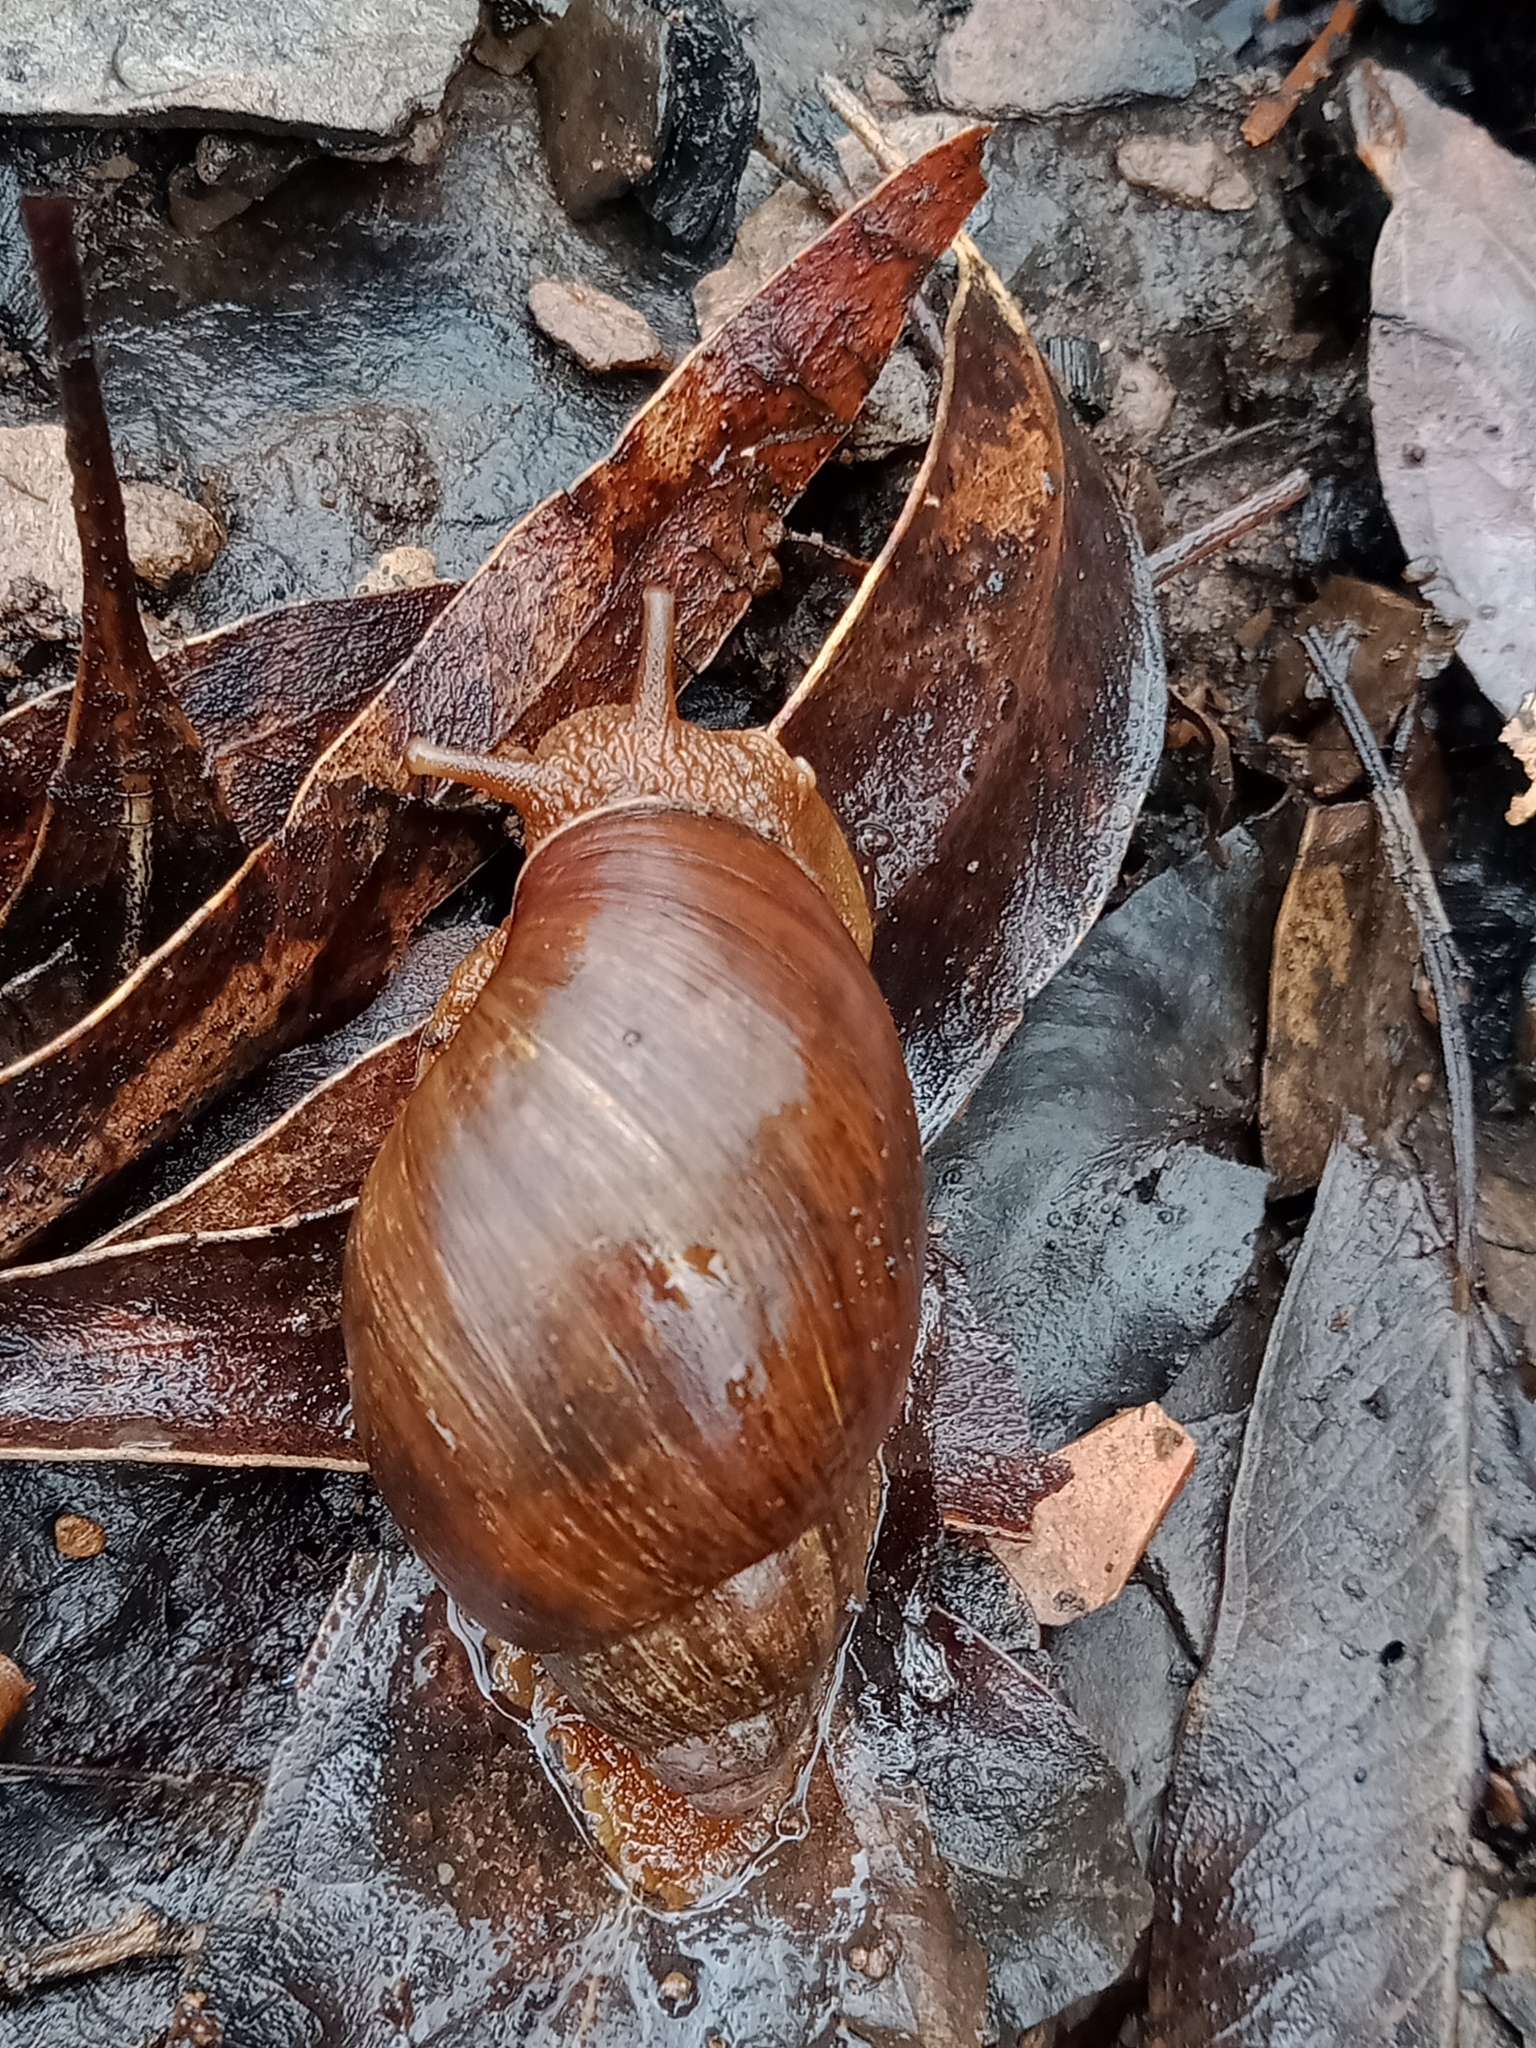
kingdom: Animalia
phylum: Mollusca
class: Gastropoda
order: Stylommatophora
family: Caryodidae
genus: Pygmipanda
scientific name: Pygmipanda kershawi
